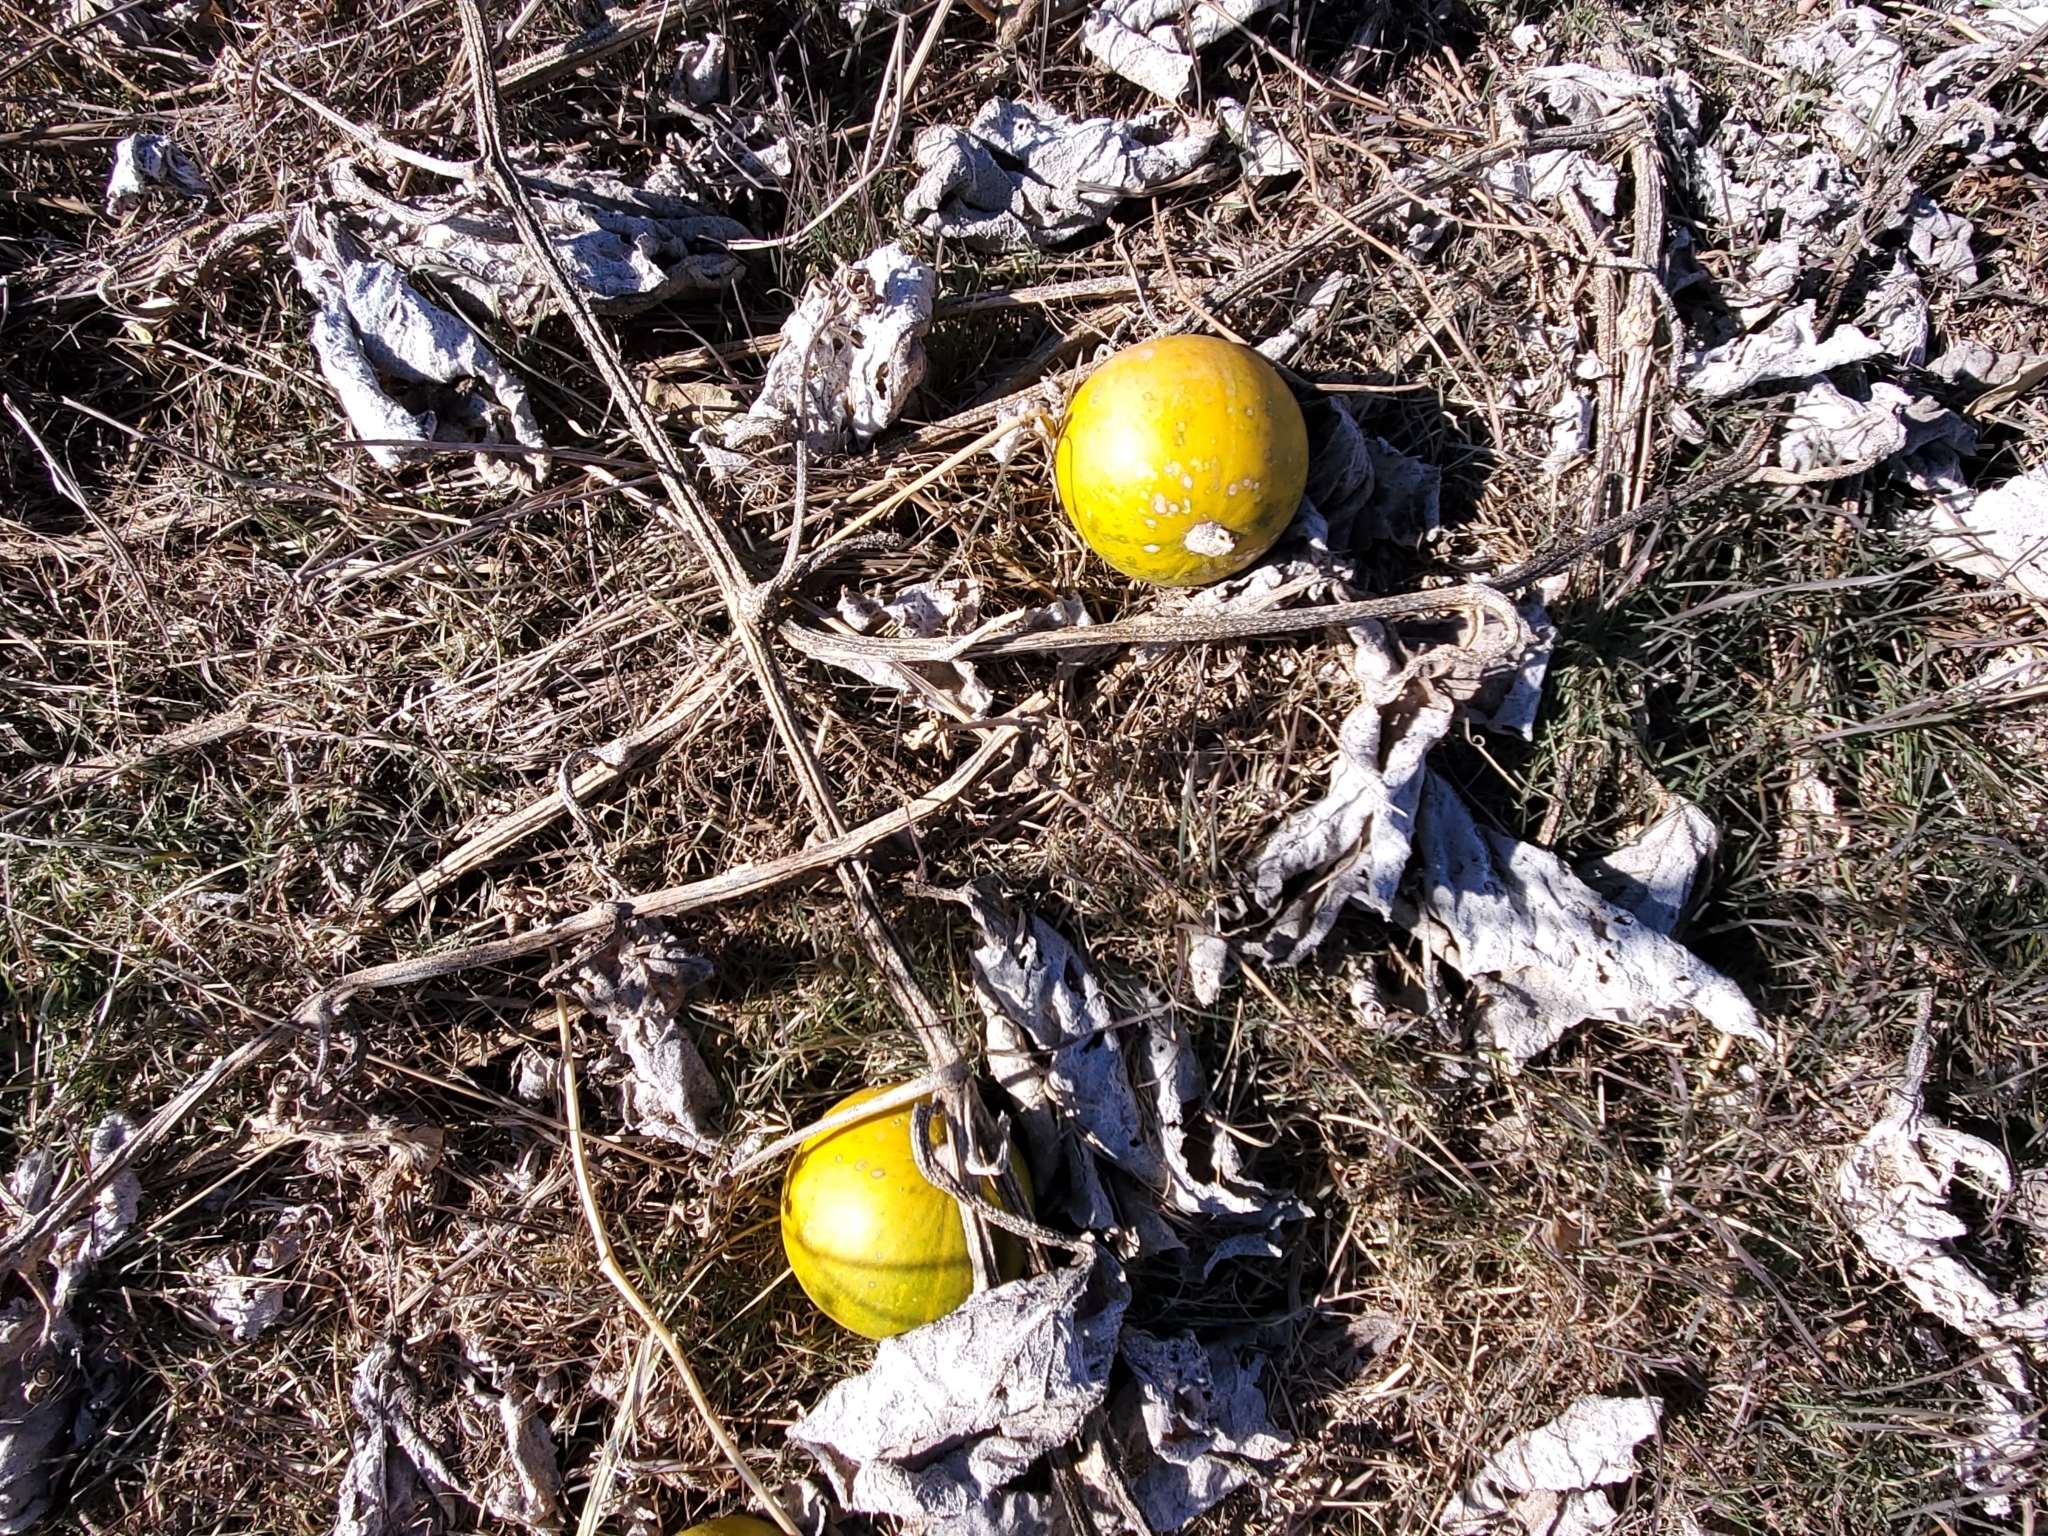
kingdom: Plantae
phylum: Tracheophyta
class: Magnoliopsida
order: Cucurbitales
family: Cucurbitaceae
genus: Cucurbita
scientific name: Cucurbita foetidissima
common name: Buffalo gourd
